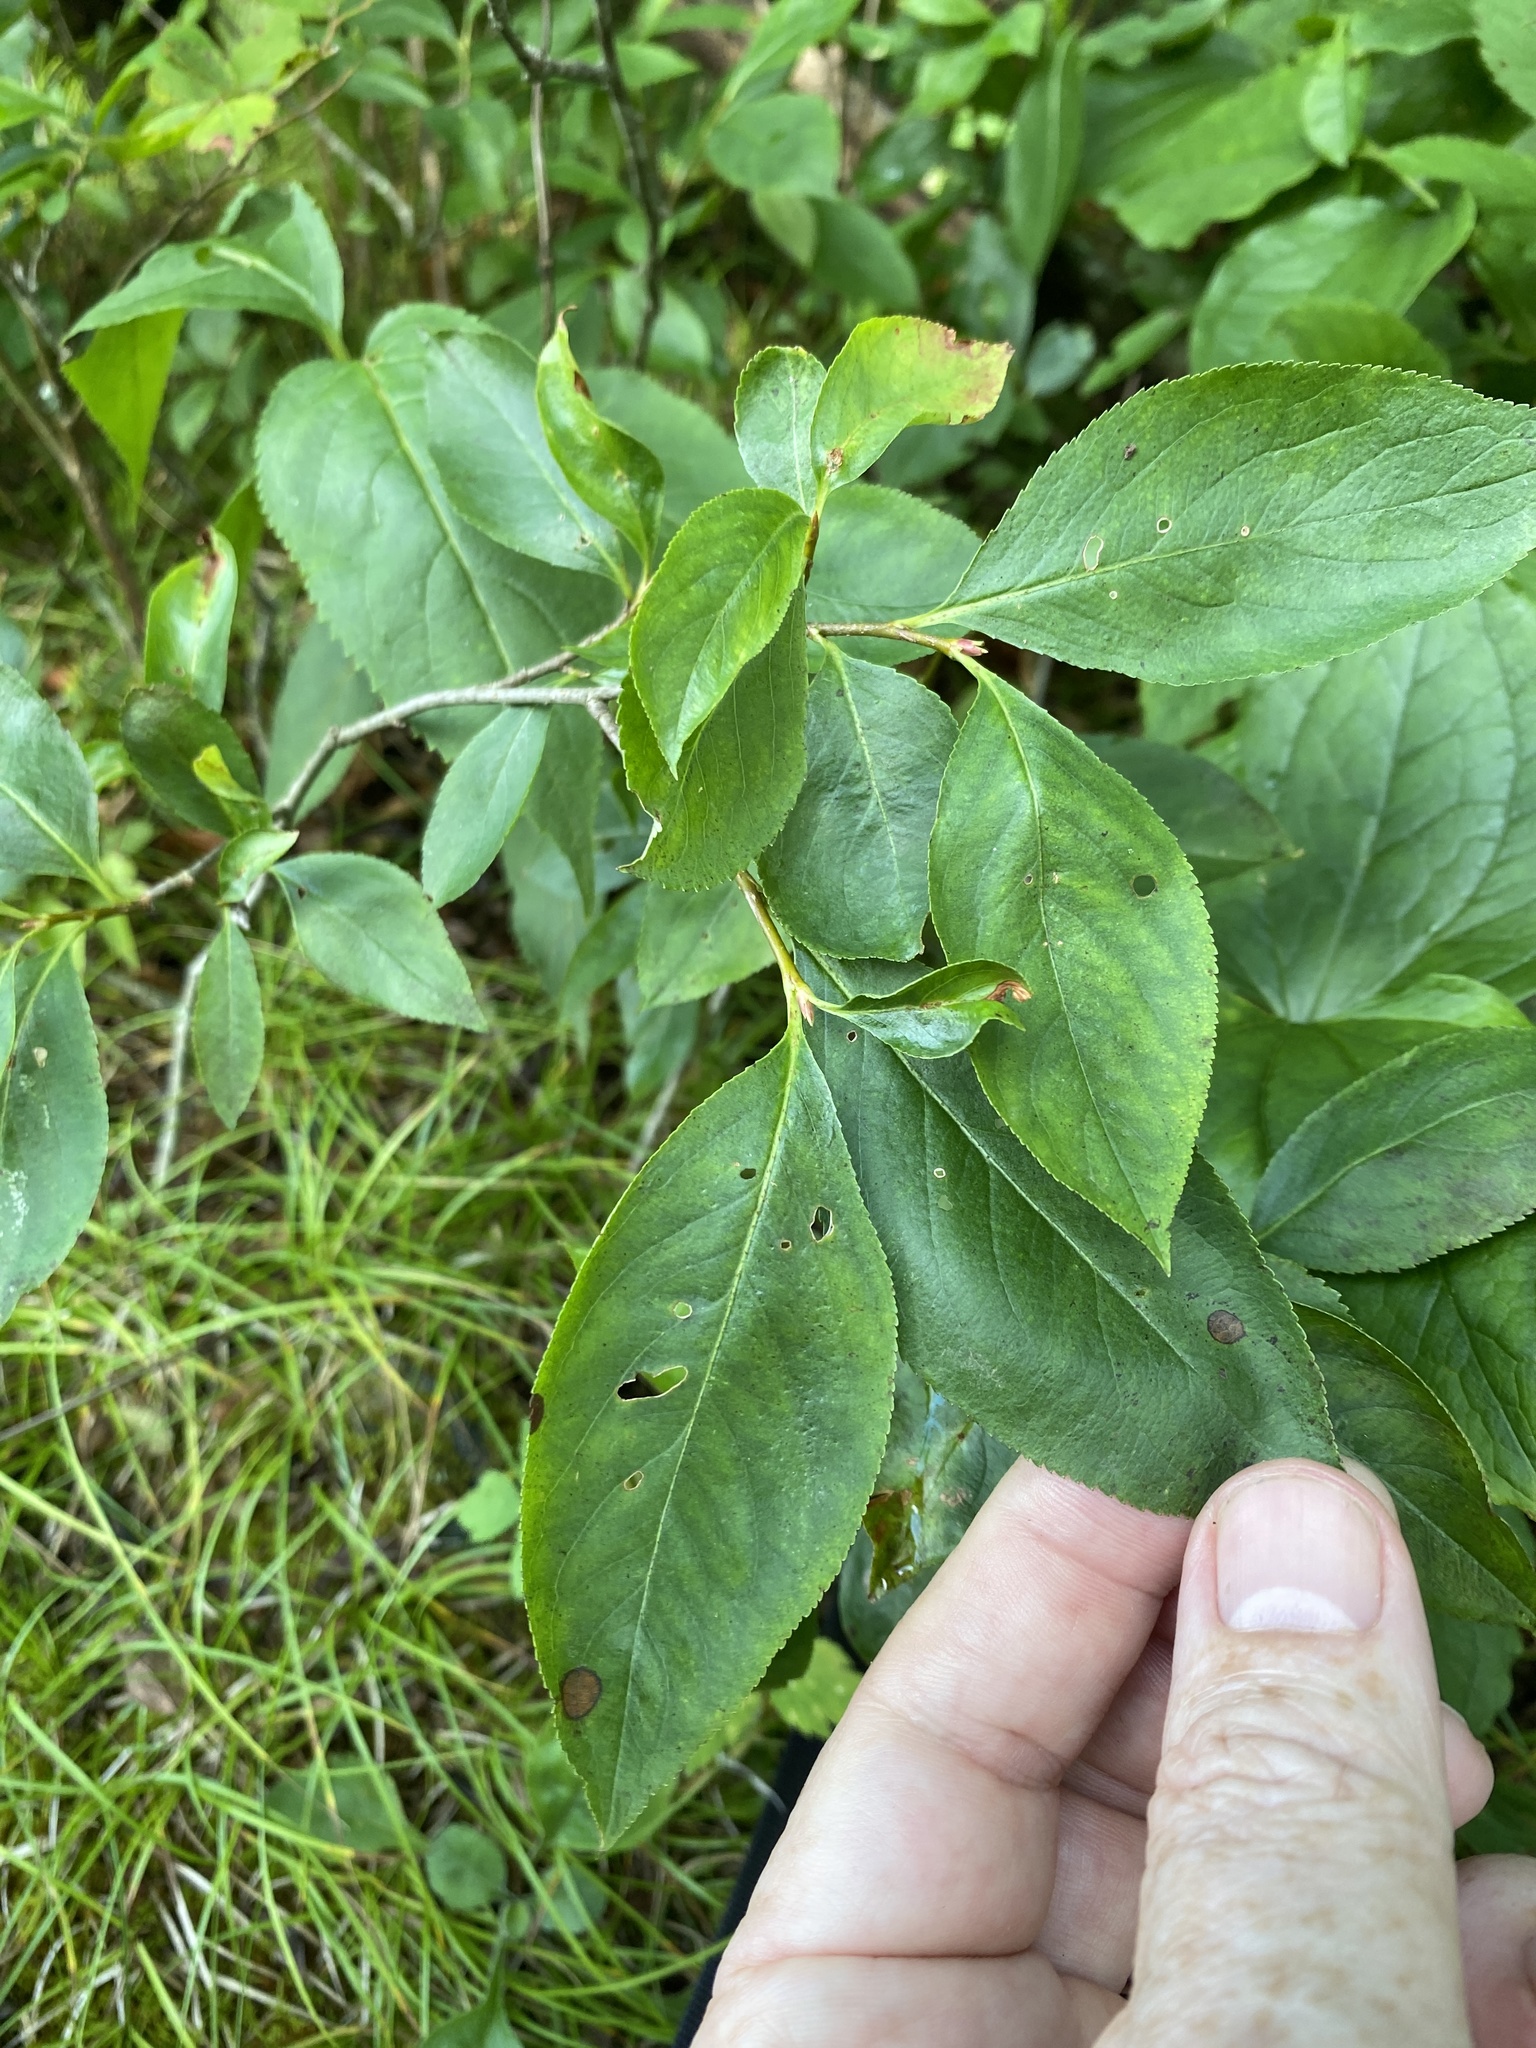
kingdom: Plantae
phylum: Tracheophyta
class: Magnoliopsida
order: Rosales
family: Rosaceae
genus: Aronia
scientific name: Aronia melanocarpa
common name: Black chokeberry
